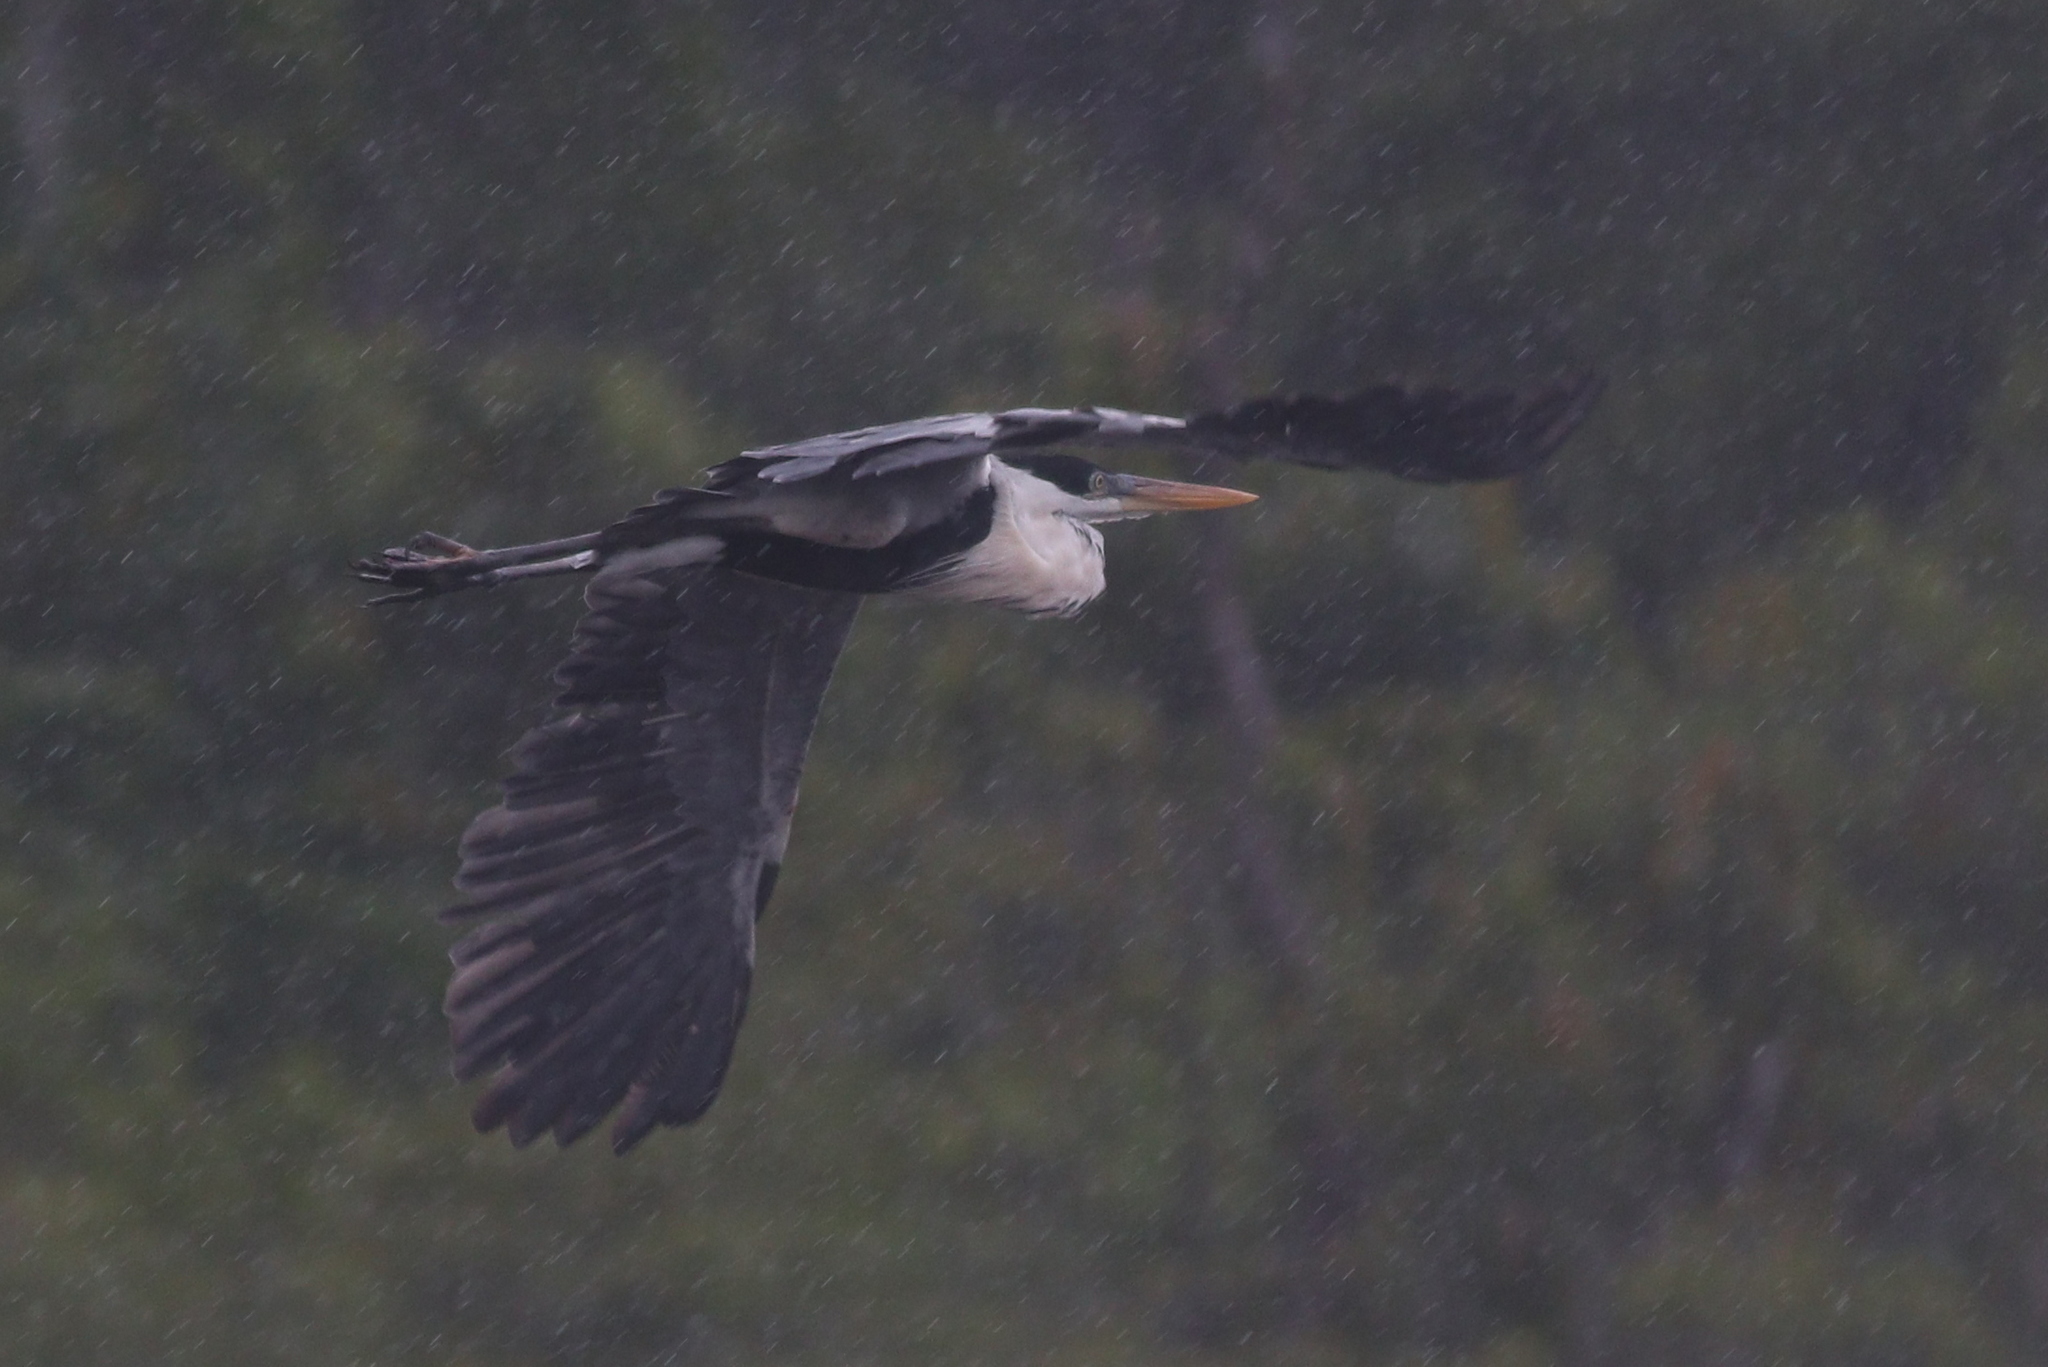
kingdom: Animalia
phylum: Chordata
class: Aves
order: Pelecaniformes
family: Ardeidae
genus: Ardea
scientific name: Ardea cocoi
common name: Cocoi heron
